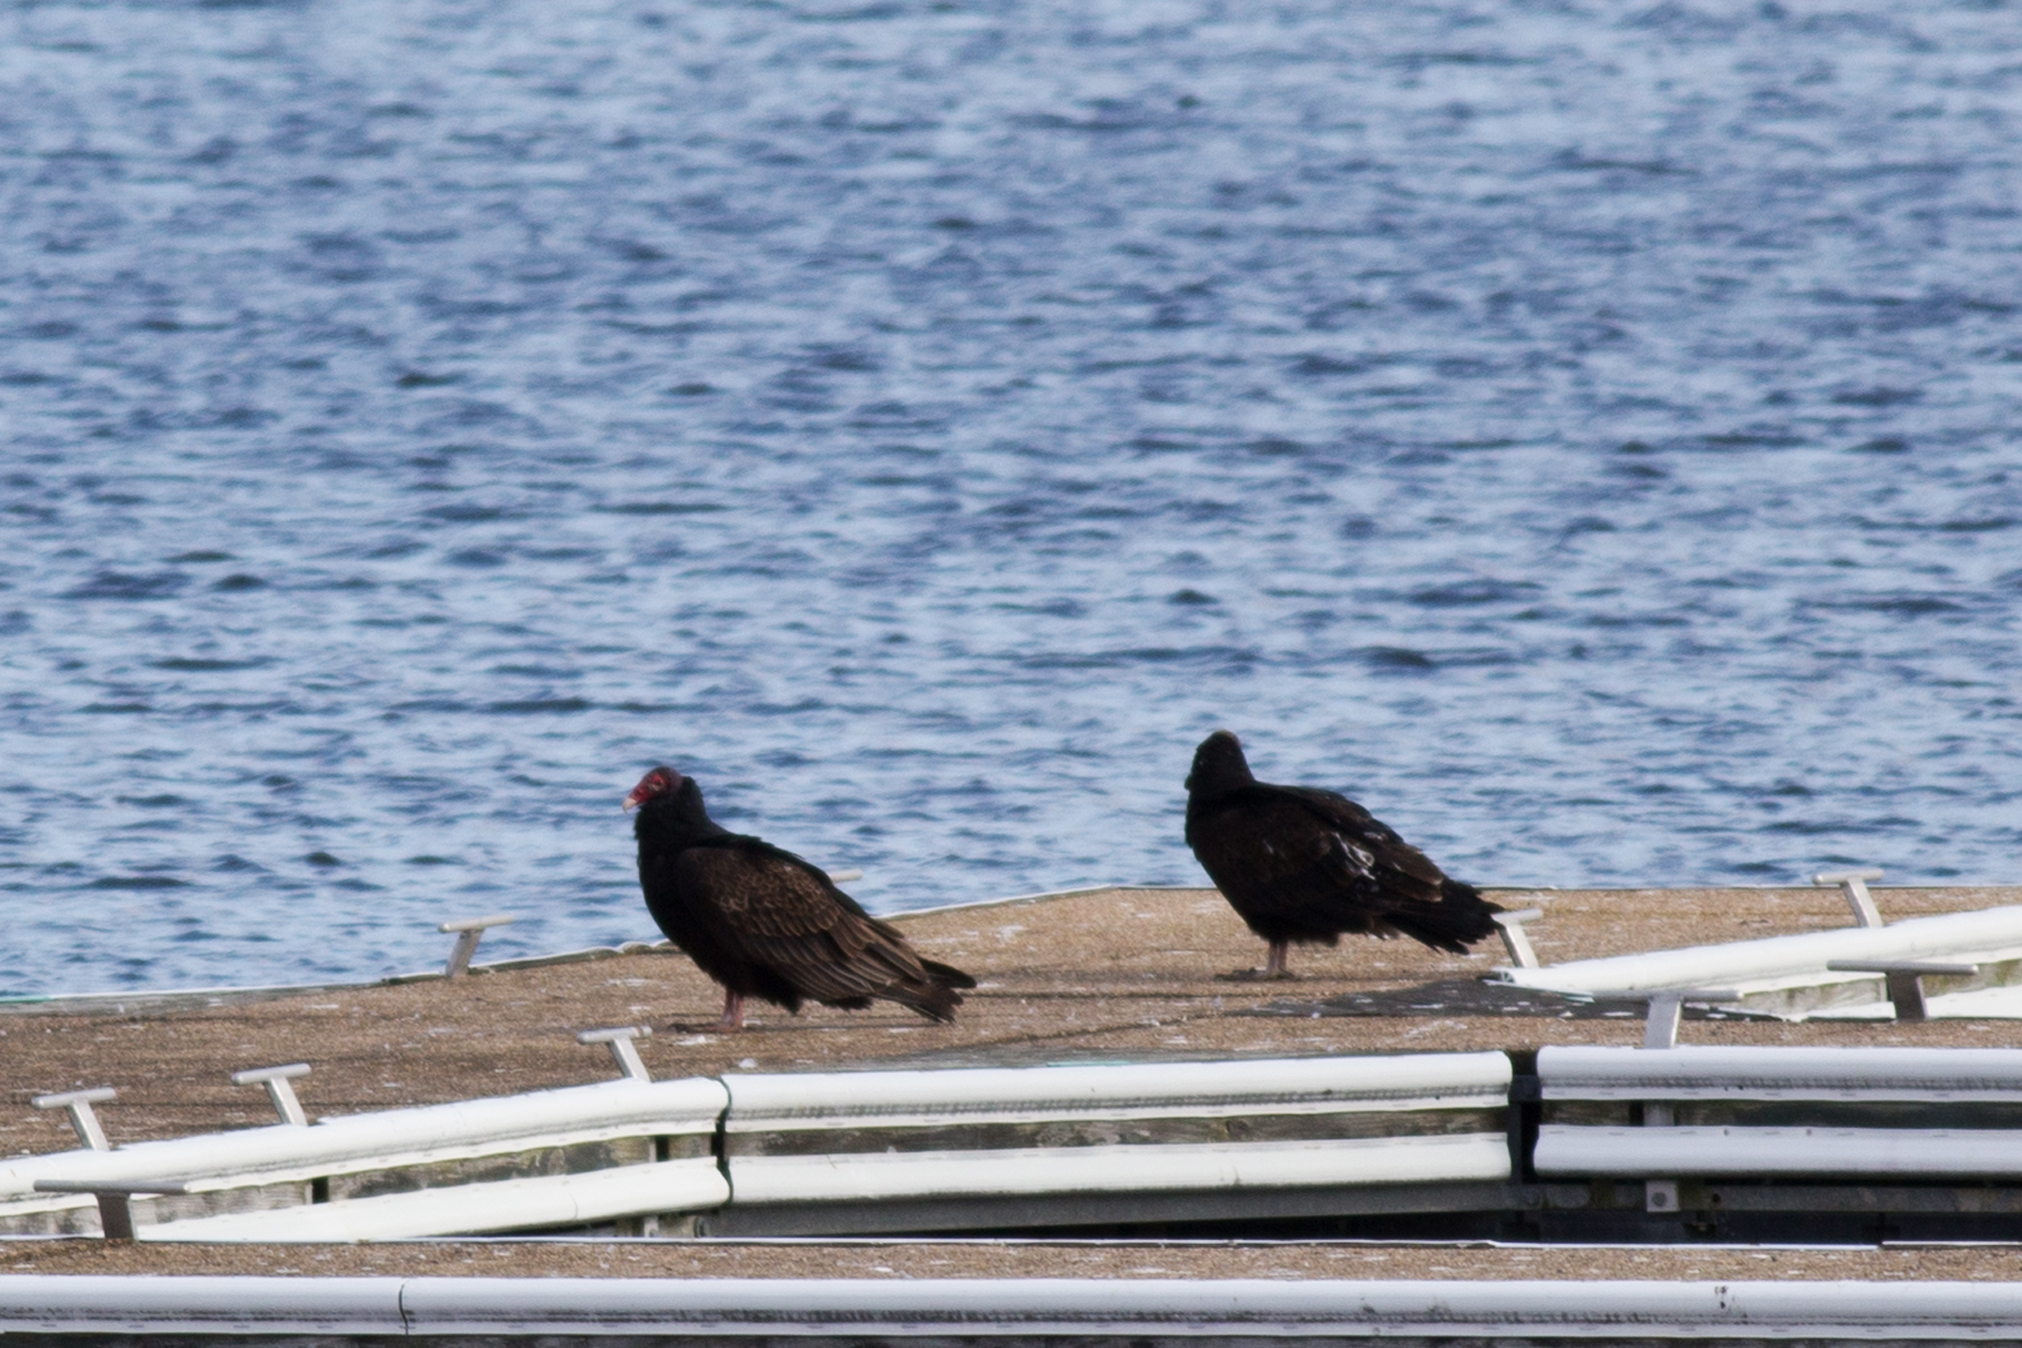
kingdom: Animalia
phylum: Chordata
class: Aves
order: Accipitriformes
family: Cathartidae
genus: Cathartes
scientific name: Cathartes aura
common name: Turkey vulture
